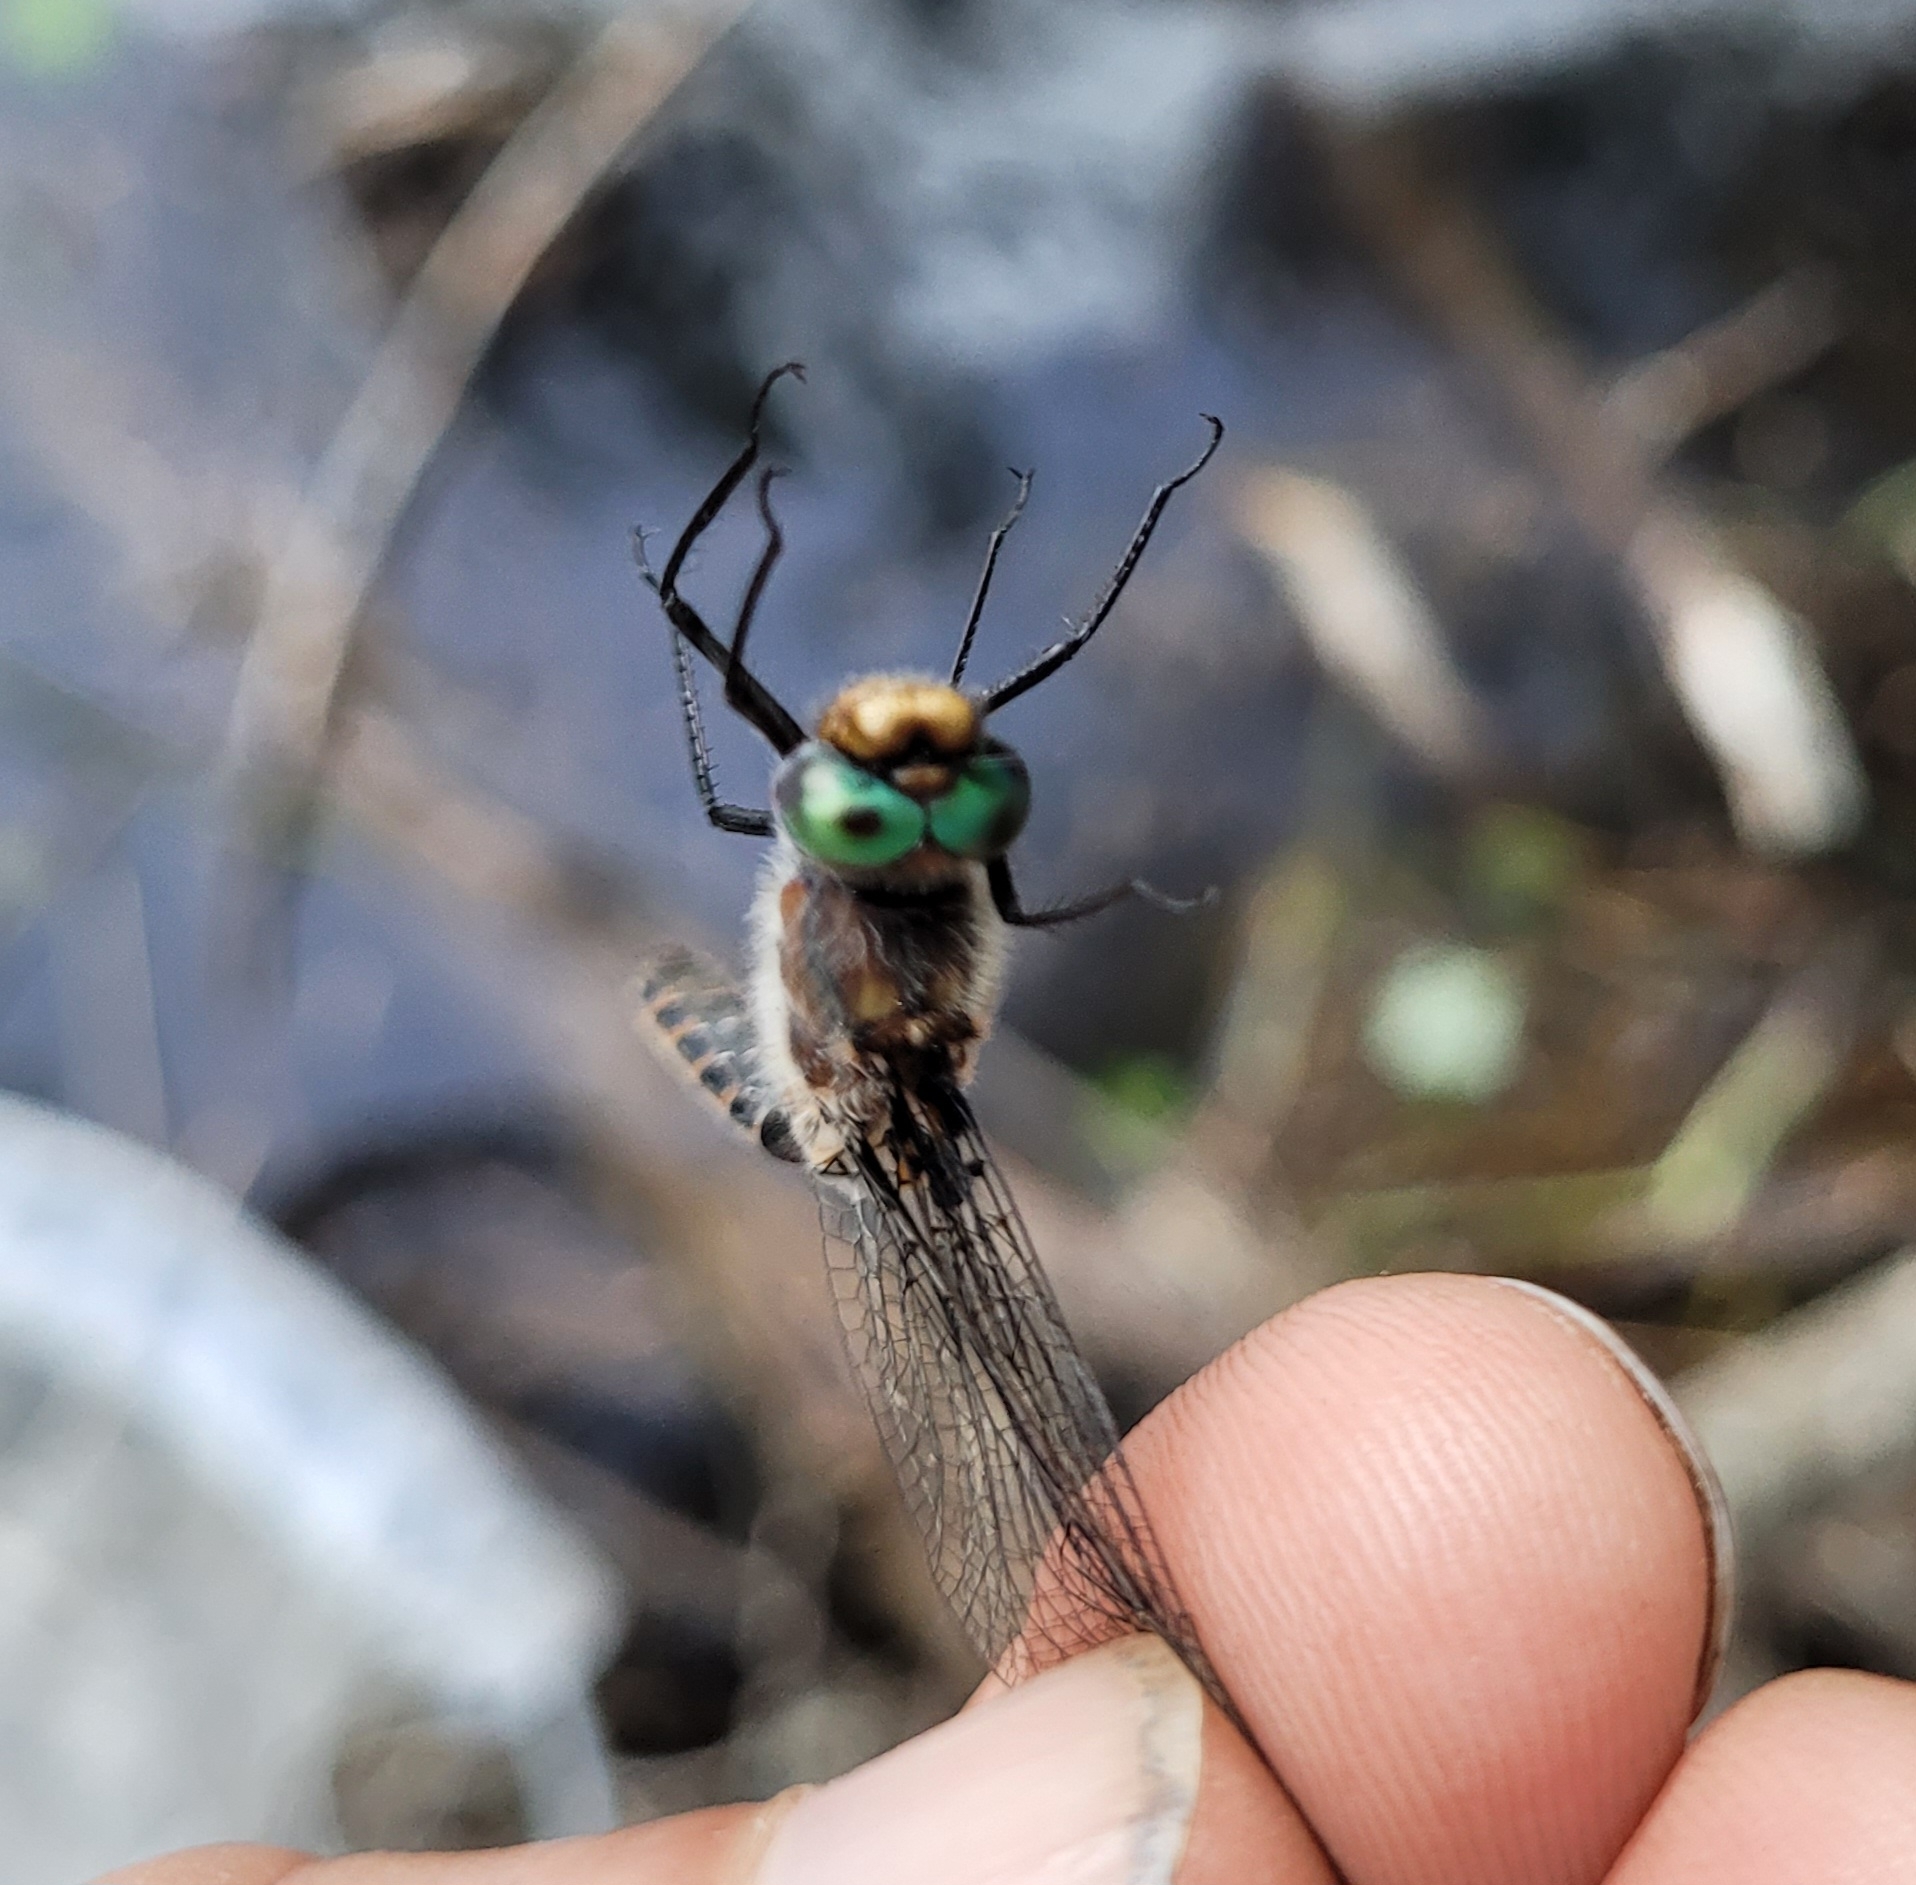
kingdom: Animalia
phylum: Arthropoda
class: Insecta
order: Odonata
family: Corduliidae
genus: Helocordulia
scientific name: Helocordulia uhleri
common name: Uhler's sundragon
